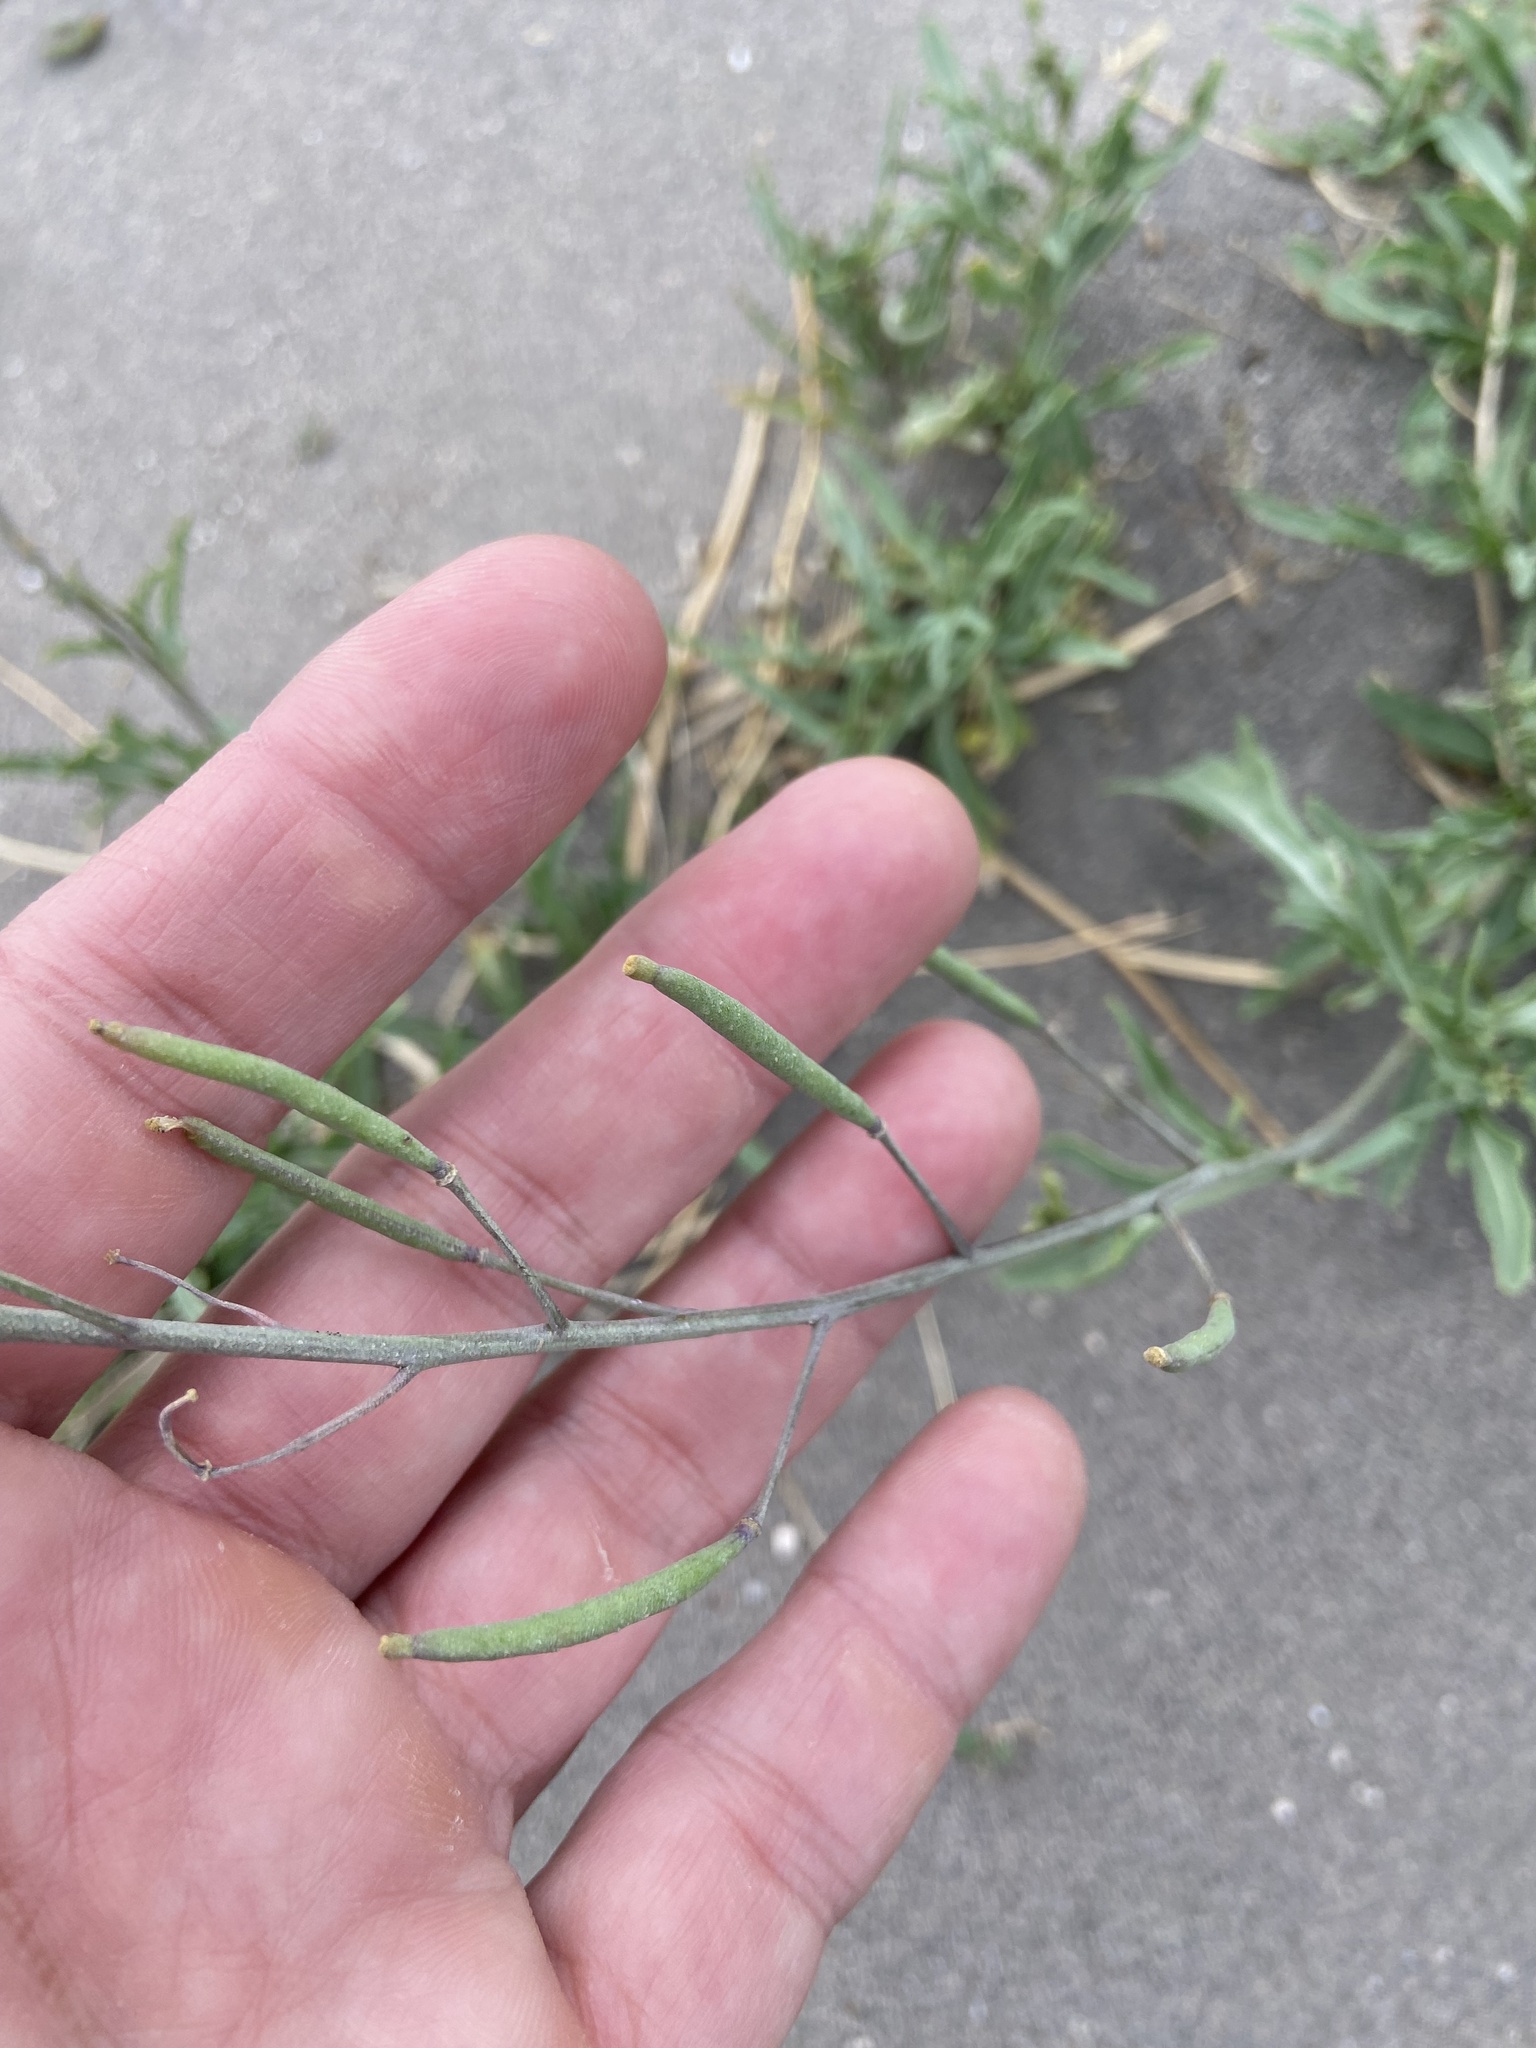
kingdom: Plantae
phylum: Tracheophyta
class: Magnoliopsida
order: Brassicales
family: Brassicaceae
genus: Diplotaxis
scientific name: Diplotaxis tenuifolia
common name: Perennial wall-rocket
